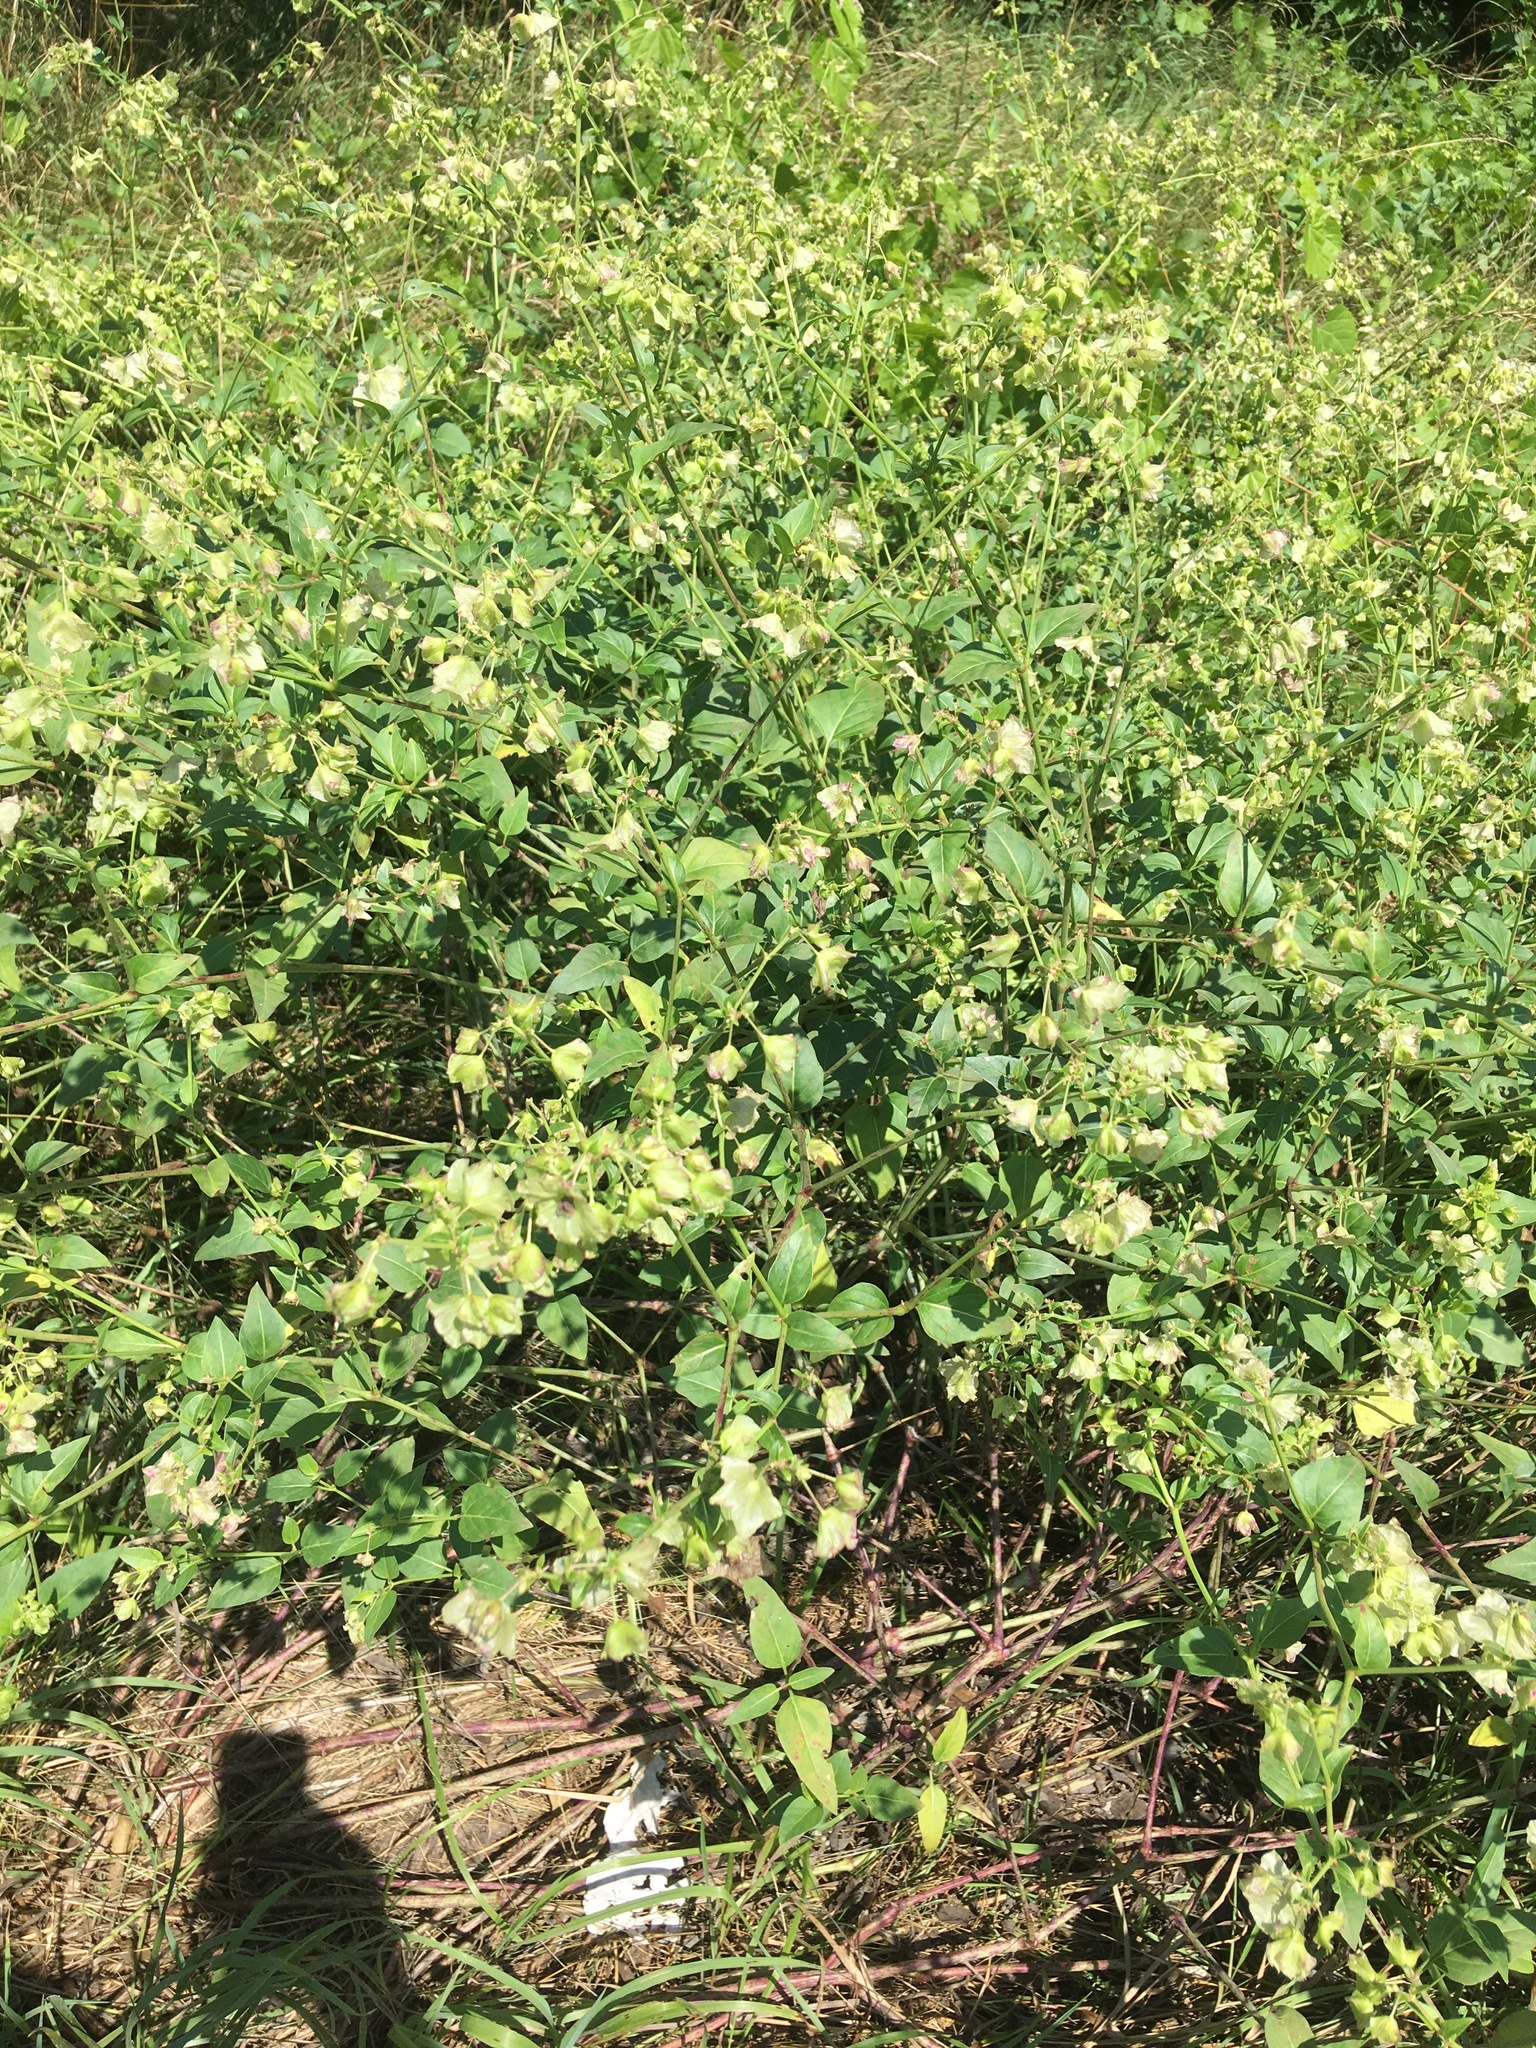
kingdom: Plantae
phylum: Tracheophyta
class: Magnoliopsida
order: Caryophyllales
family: Nyctaginaceae
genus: Mirabilis
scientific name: Mirabilis nyctaginea
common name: Umbrella wort
